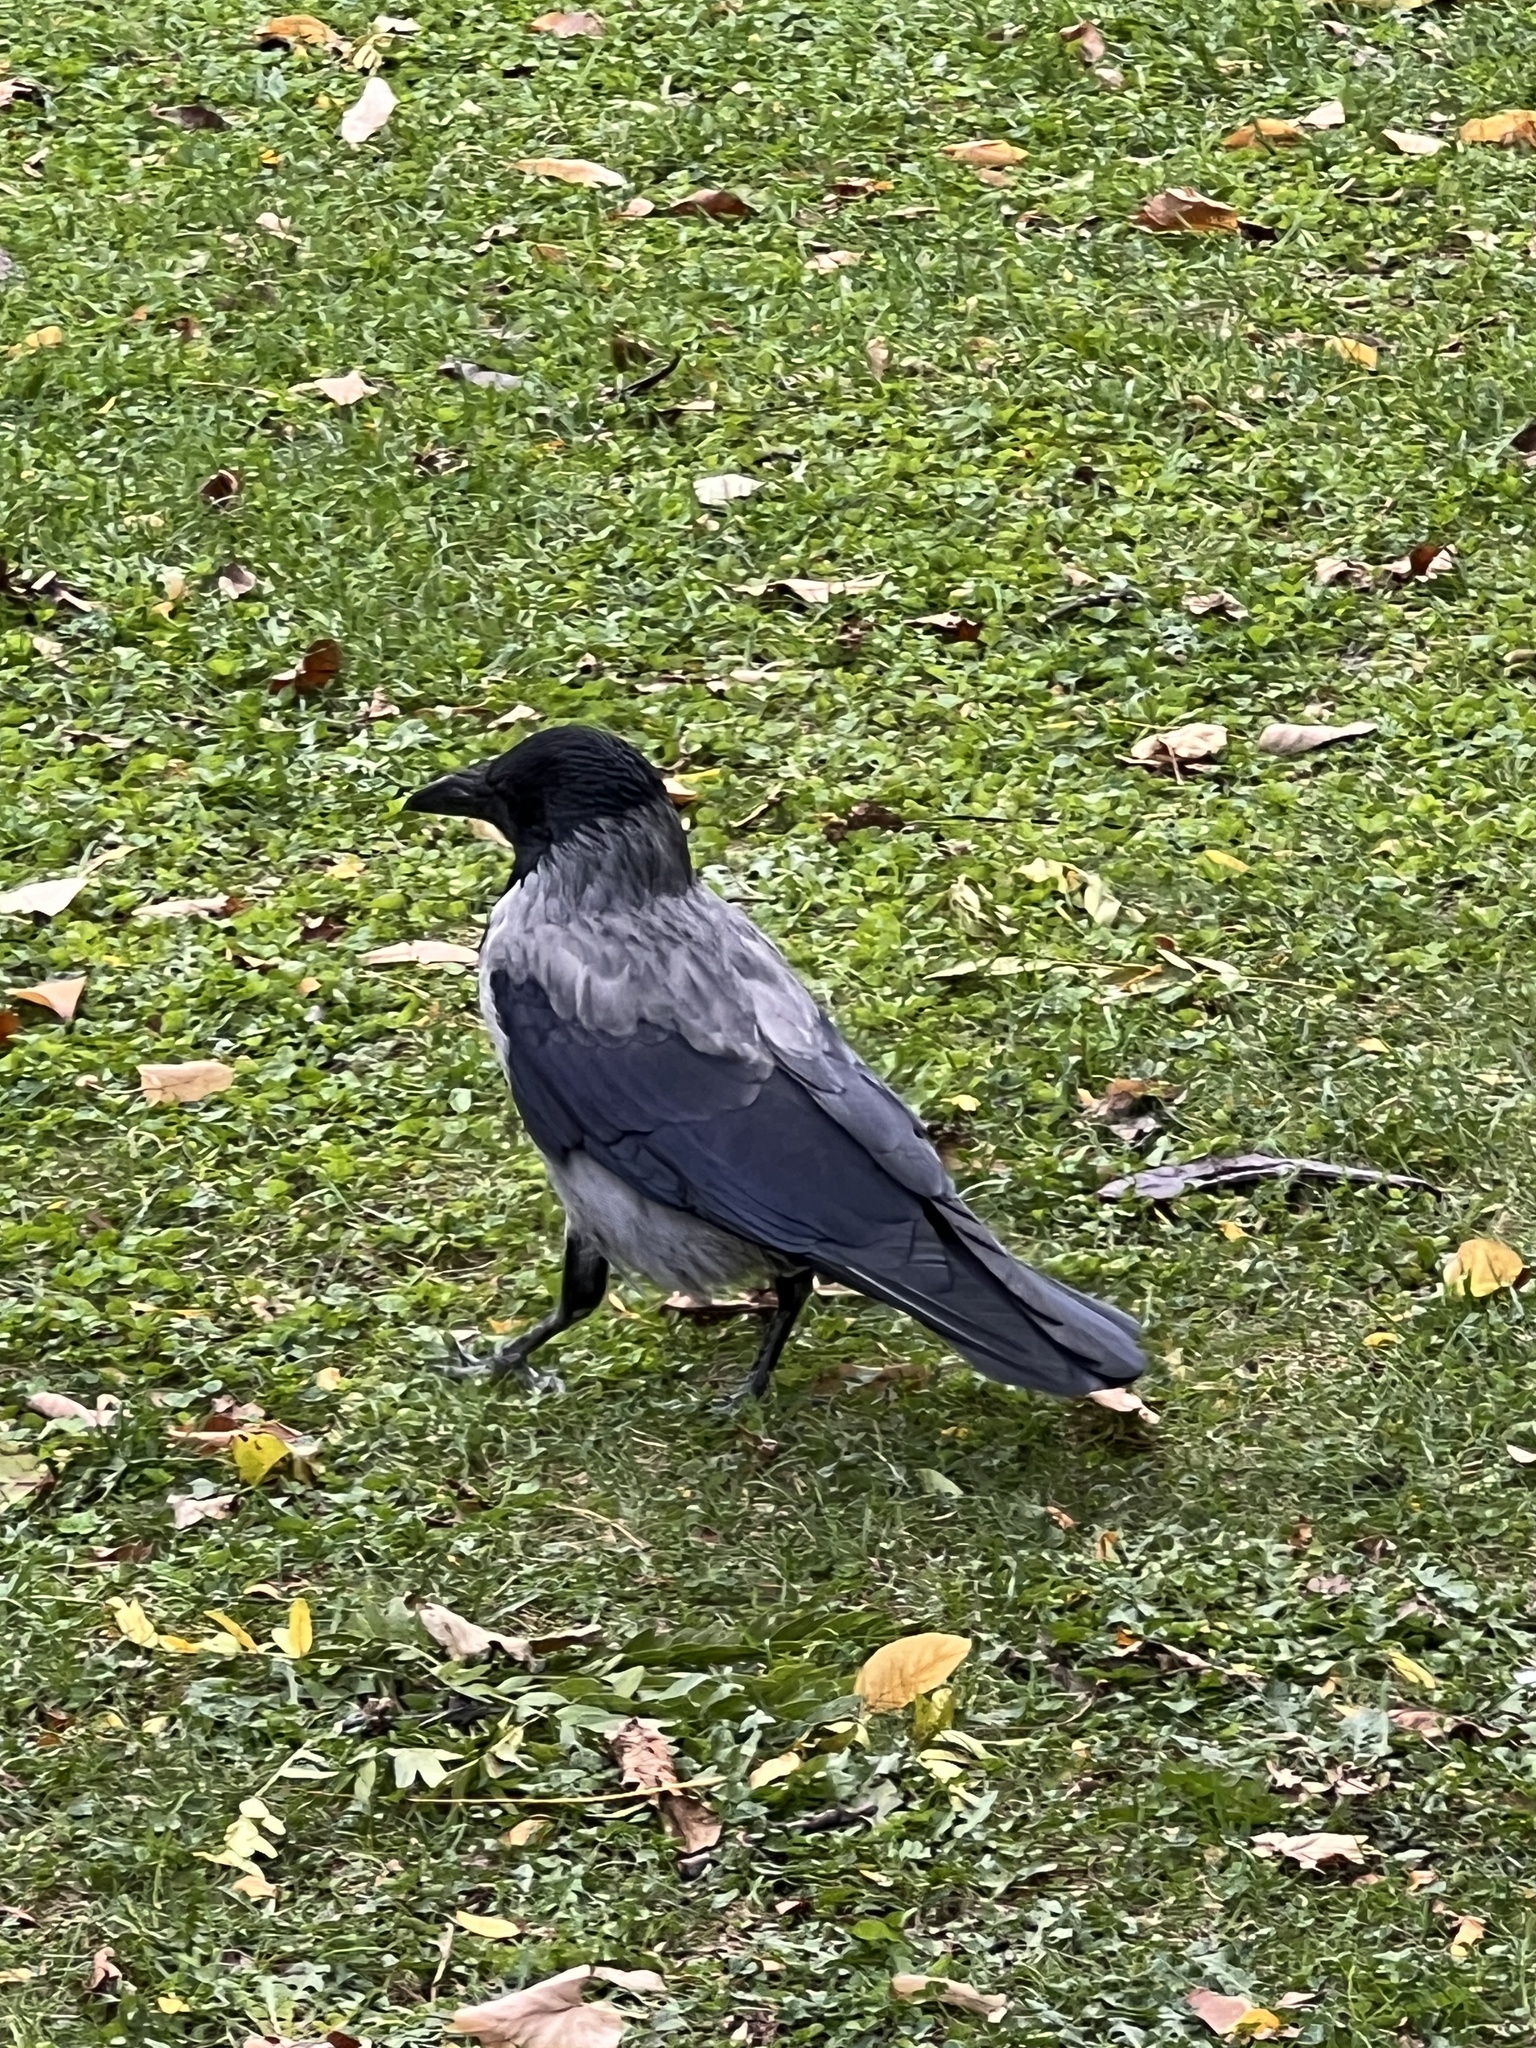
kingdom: Animalia
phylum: Chordata
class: Aves
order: Passeriformes
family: Corvidae
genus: Corvus
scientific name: Corvus cornix
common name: Hooded crow
